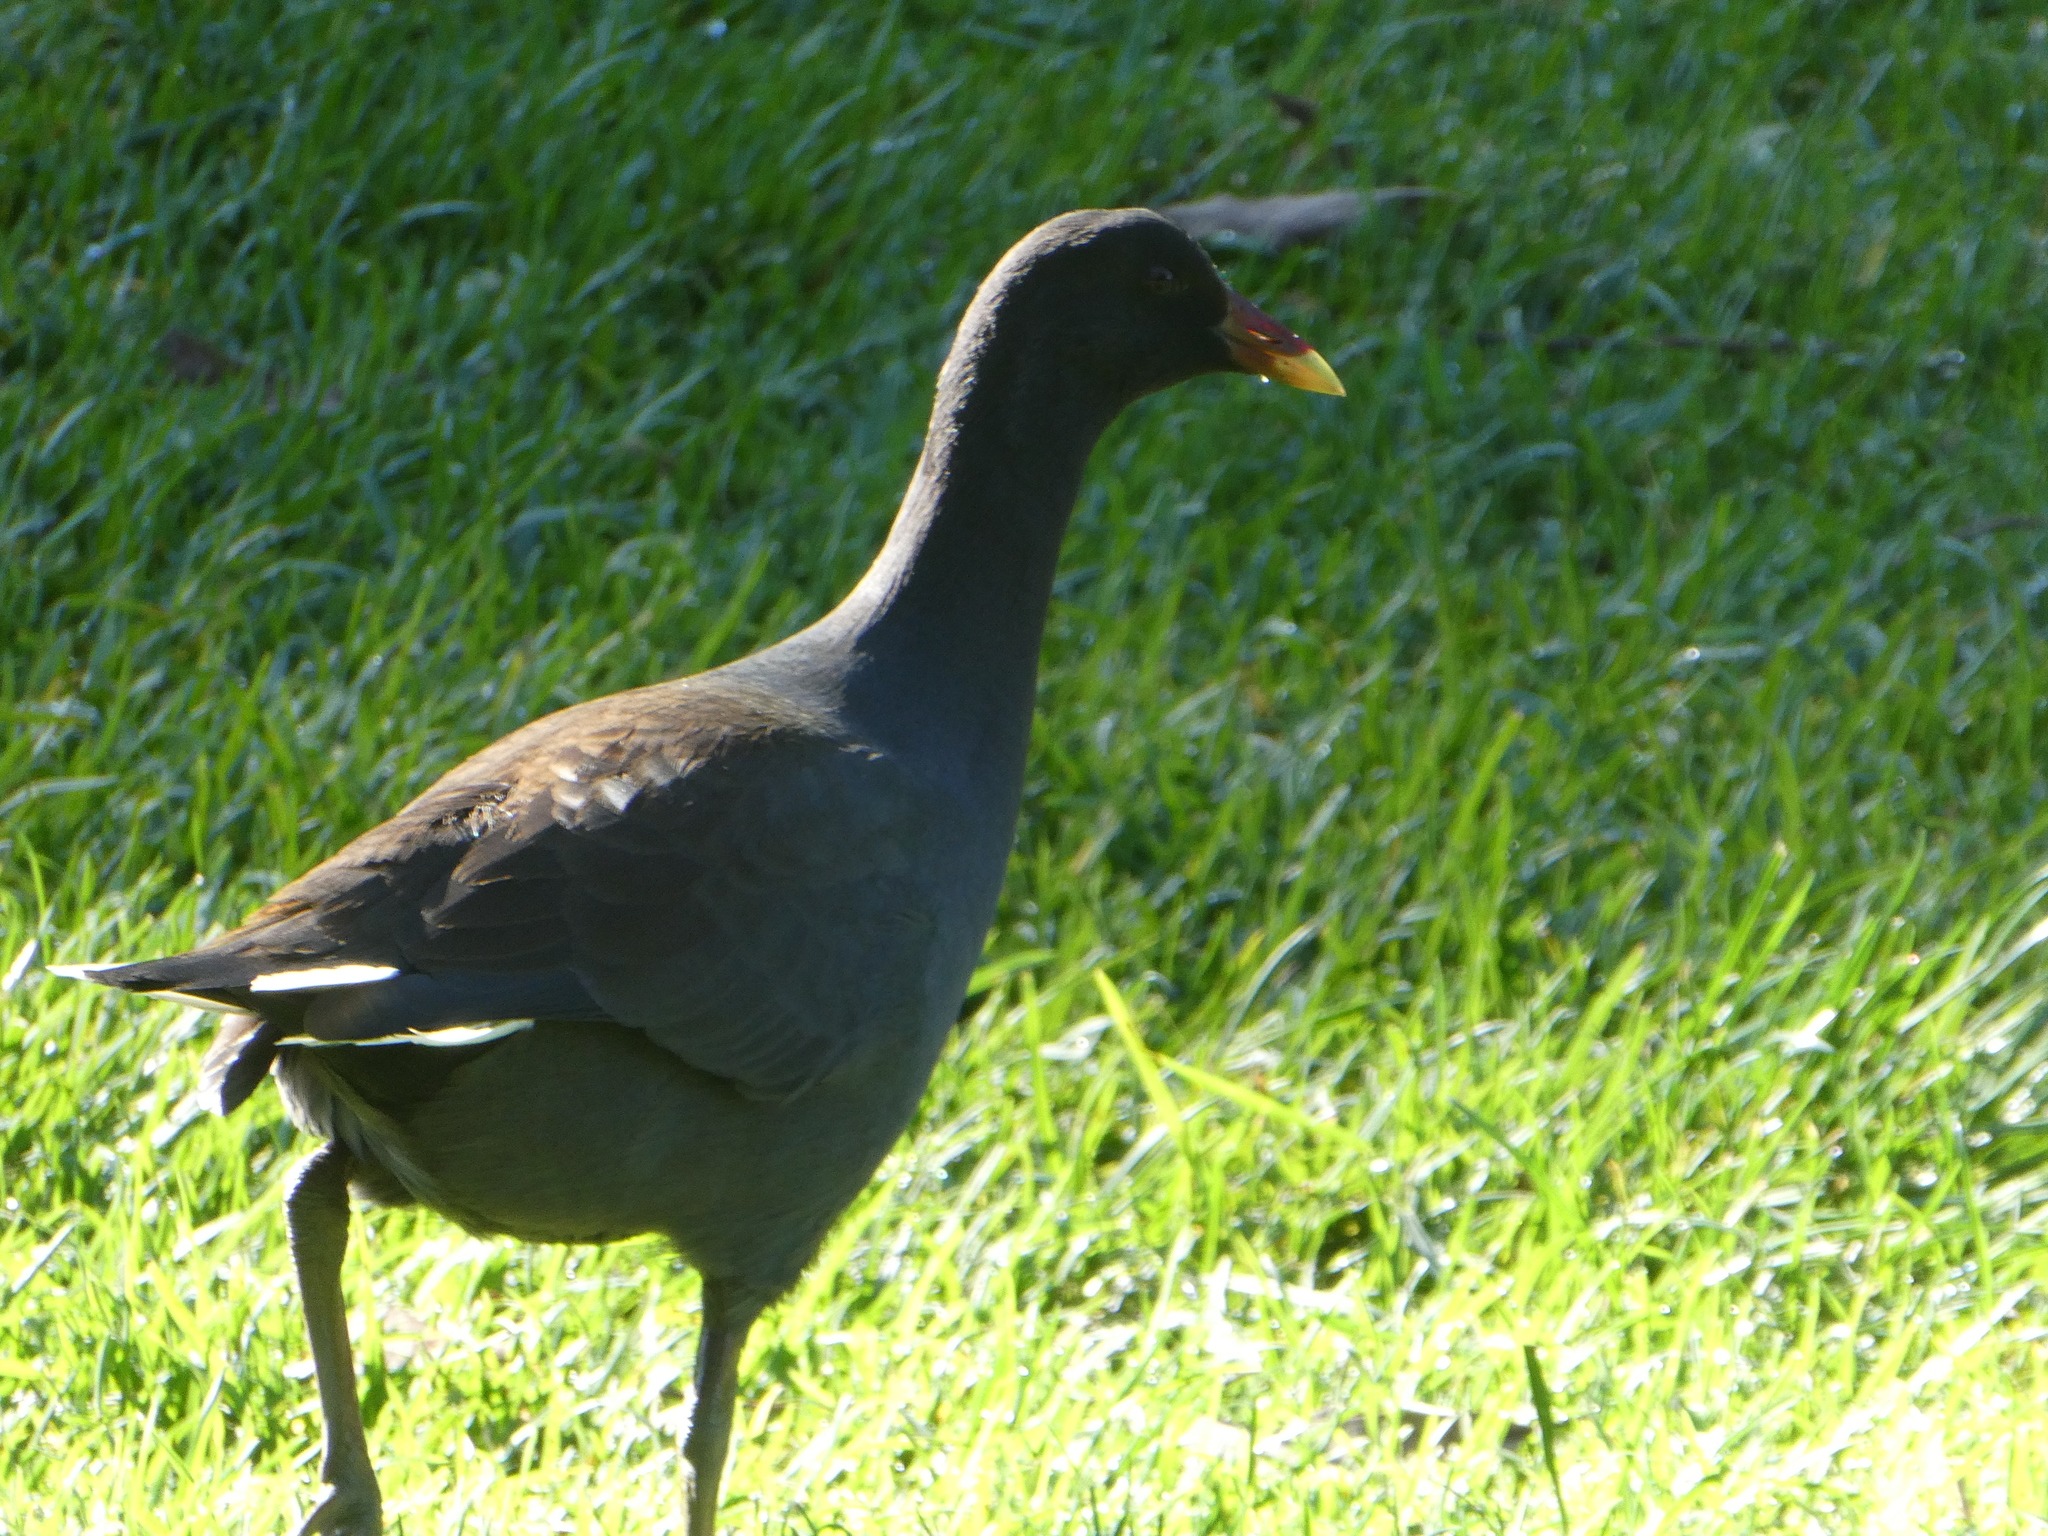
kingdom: Animalia
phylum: Chordata
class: Aves
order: Gruiformes
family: Rallidae
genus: Gallinula
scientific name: Gallinula tenebrosa
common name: Dusky moorhen
